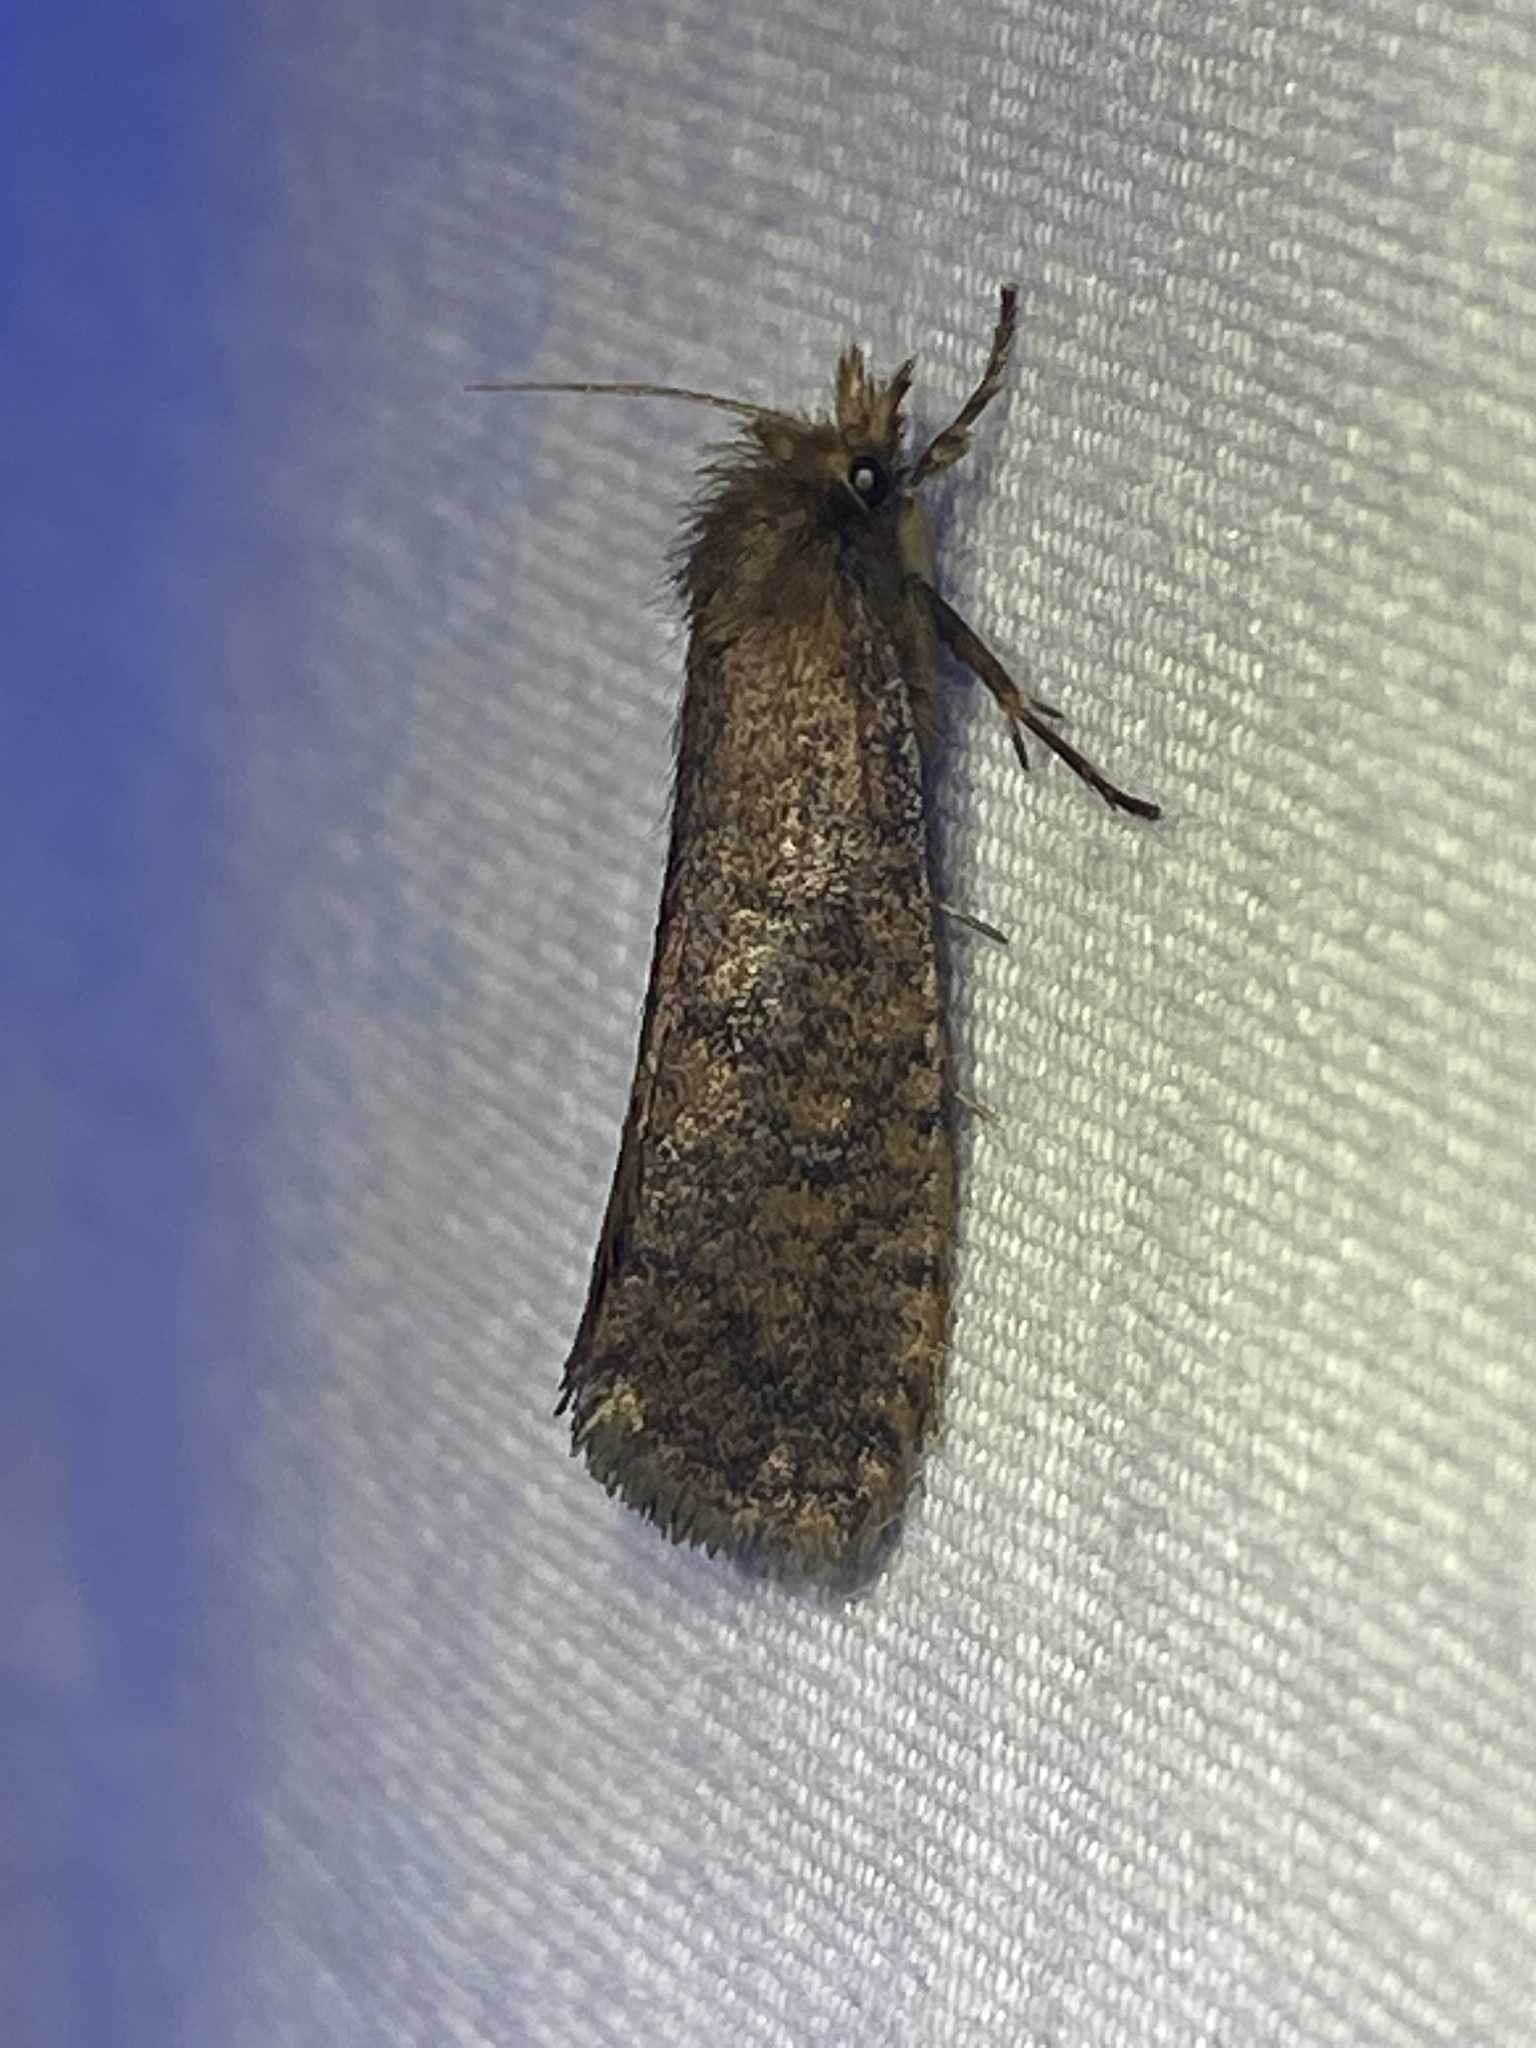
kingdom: Animalia
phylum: Arthropoda
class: Insecta
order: Lepidoptera
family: Tineidae
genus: Acrolophus
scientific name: Acrolophus propinqua
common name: Walsingham's grass tubeworm moth
